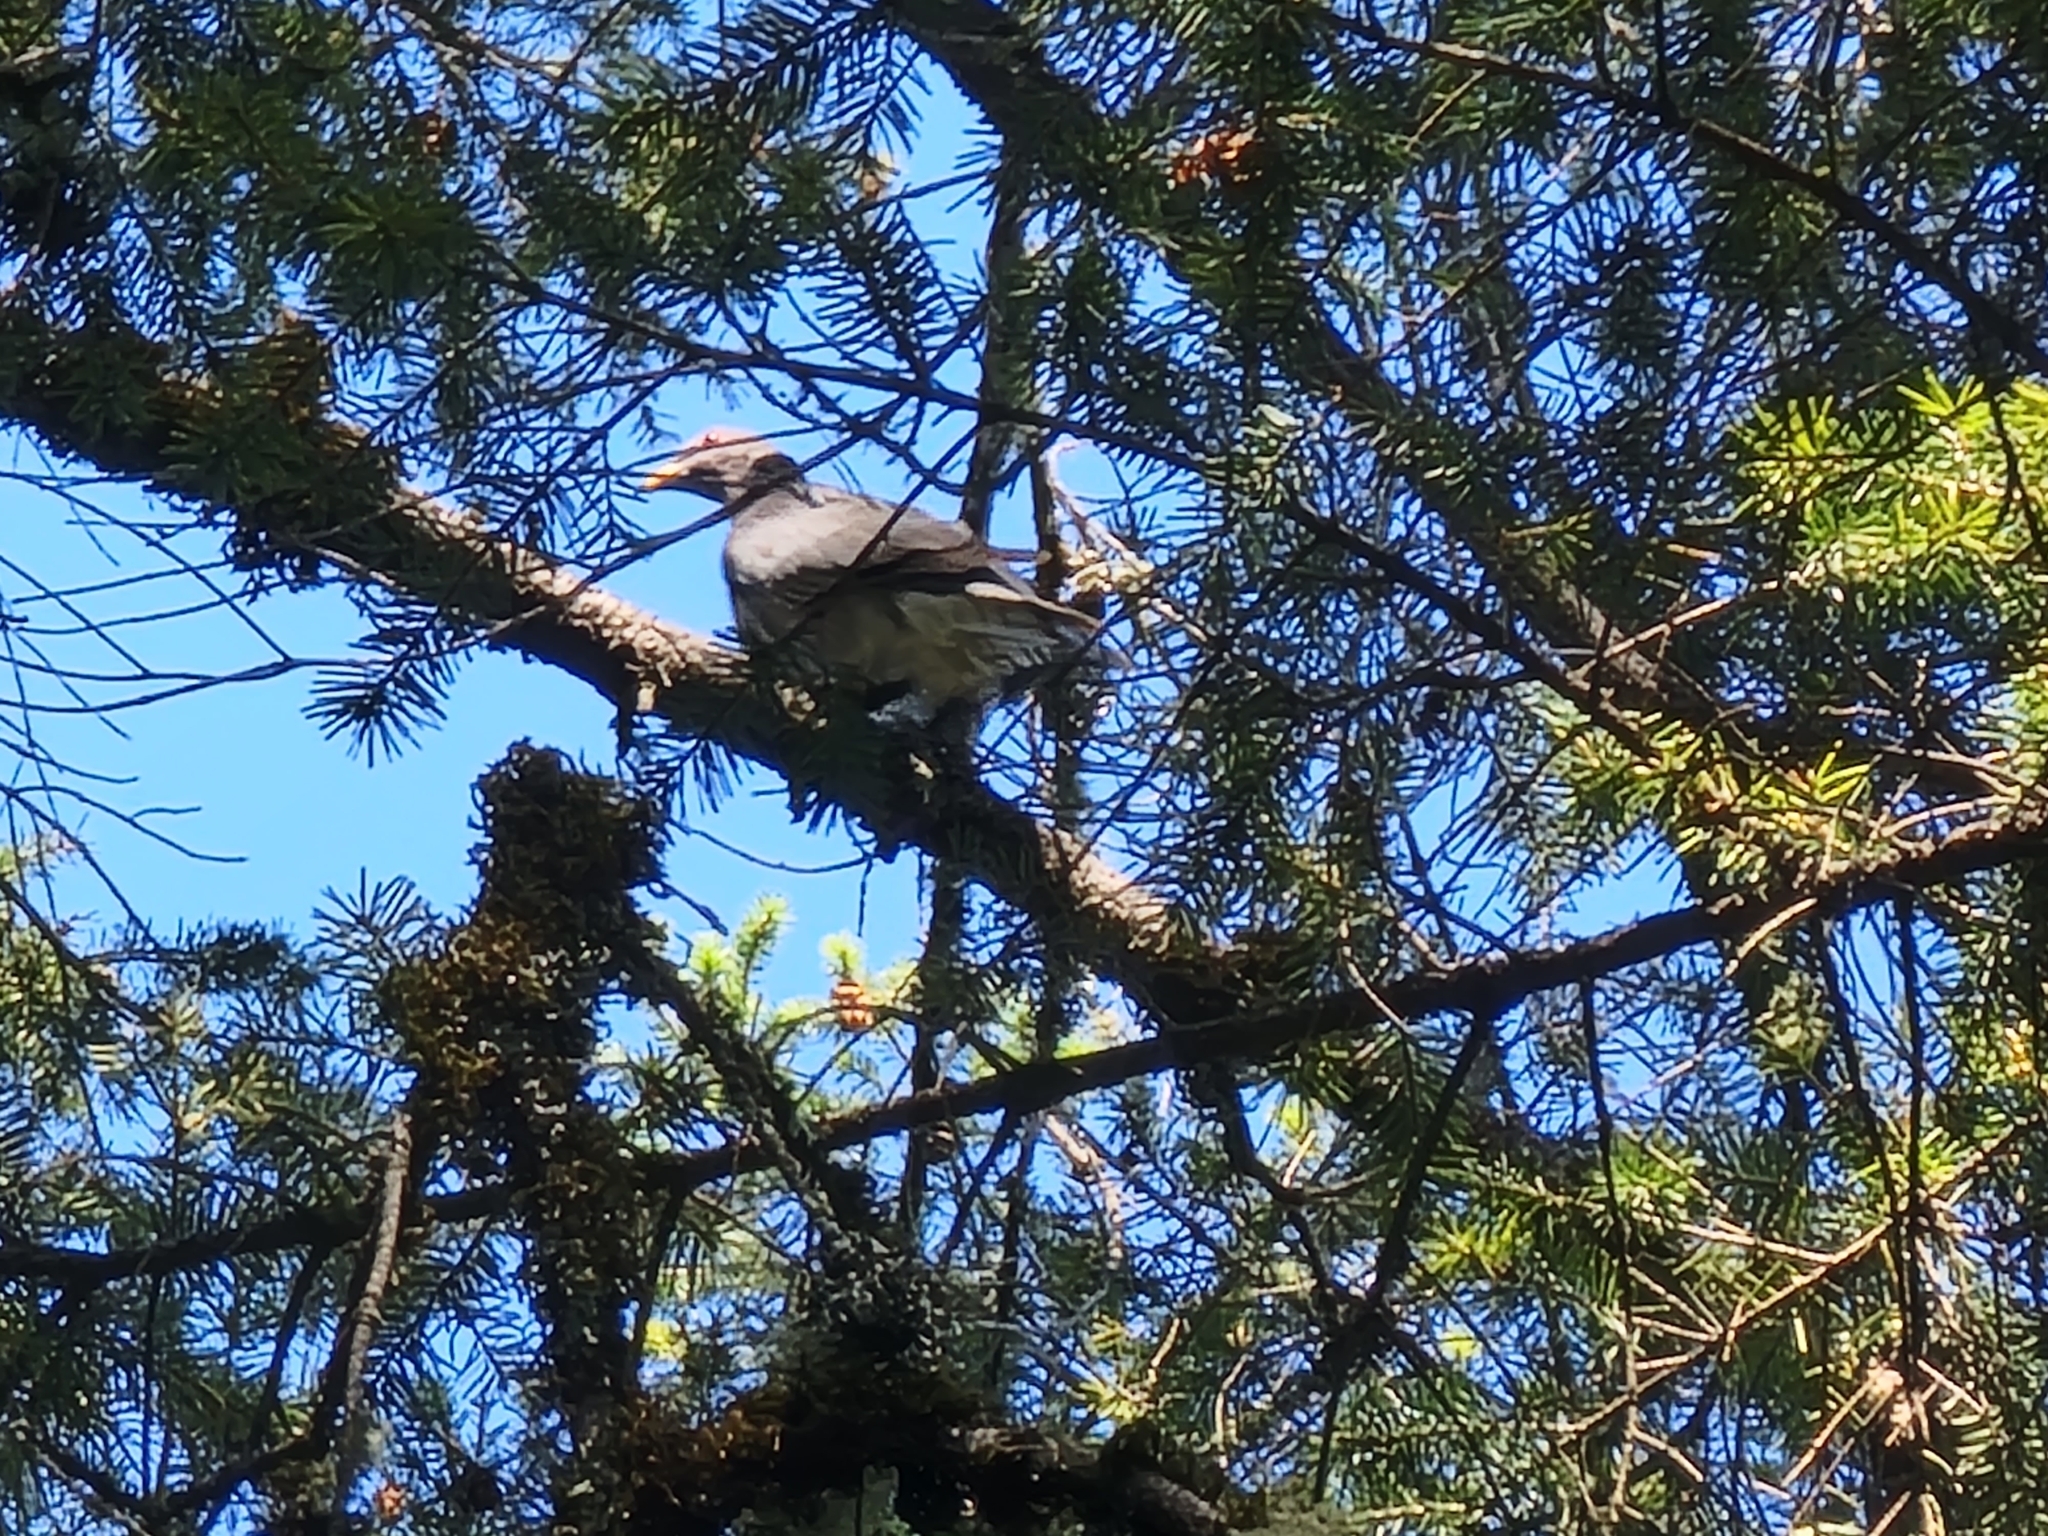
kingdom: Animalia
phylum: Chordata
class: Aves
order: Columbiformes
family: Columbidae
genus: Patagioenas
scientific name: Patagioenas fasciata
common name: Band-tailed pigeon
